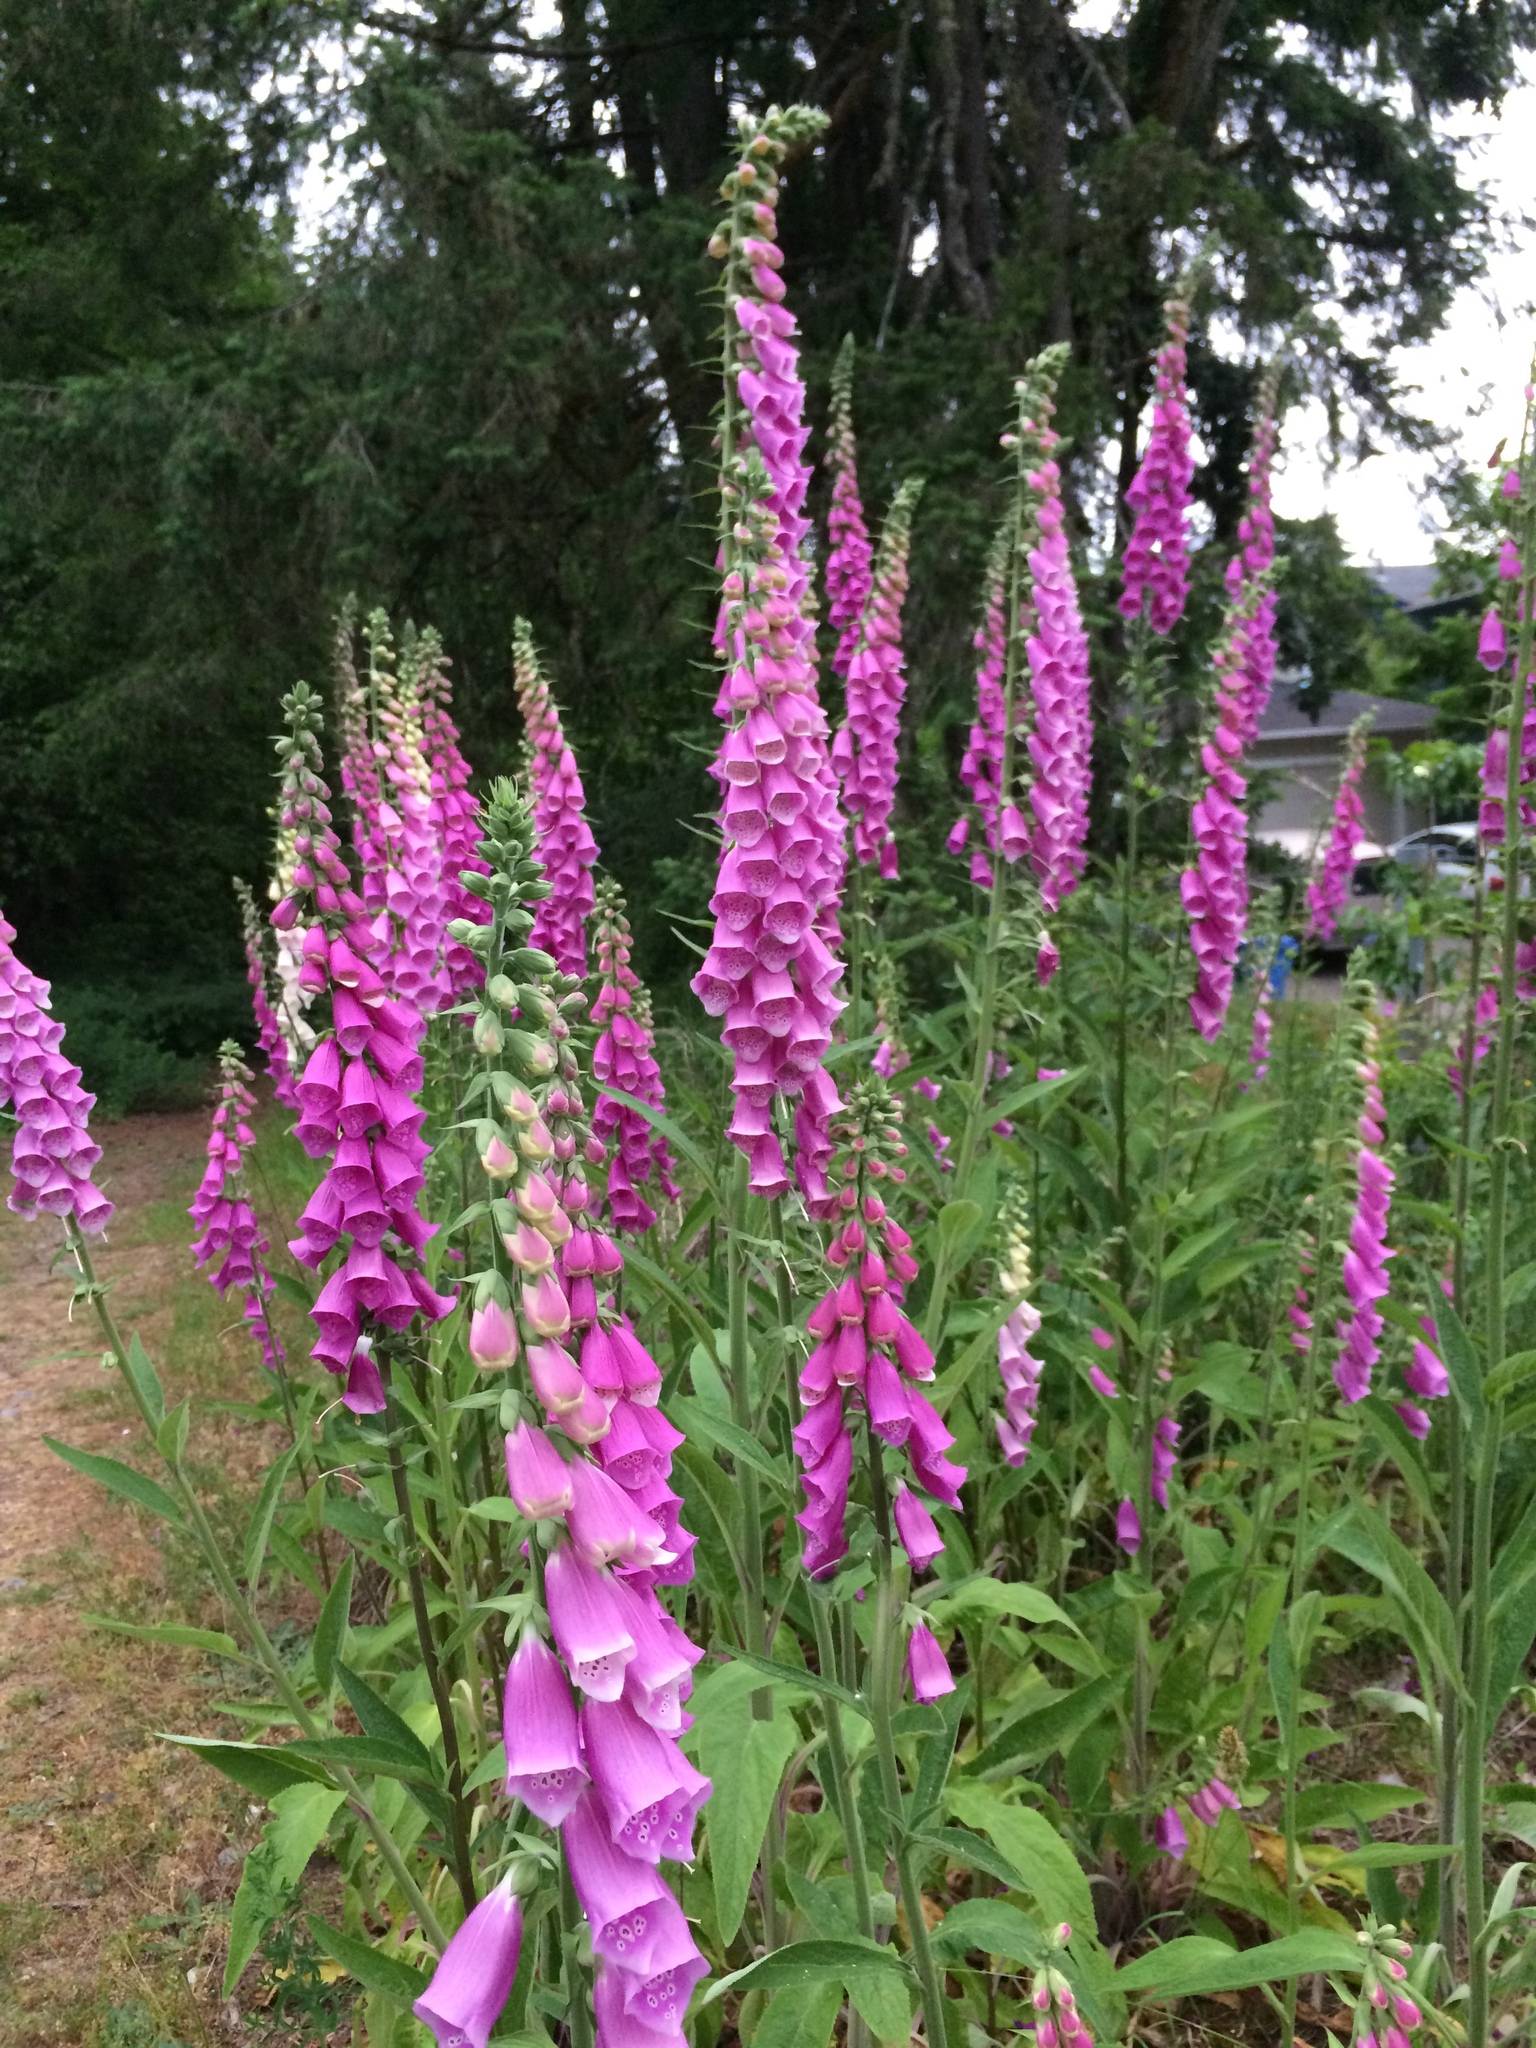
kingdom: Plantae
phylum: Tracheophyta
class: Magnoliopsida
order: Lamiales
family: Plantaginaceae
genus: Digitalis
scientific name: Digitalis purpurea
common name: Foxglove
